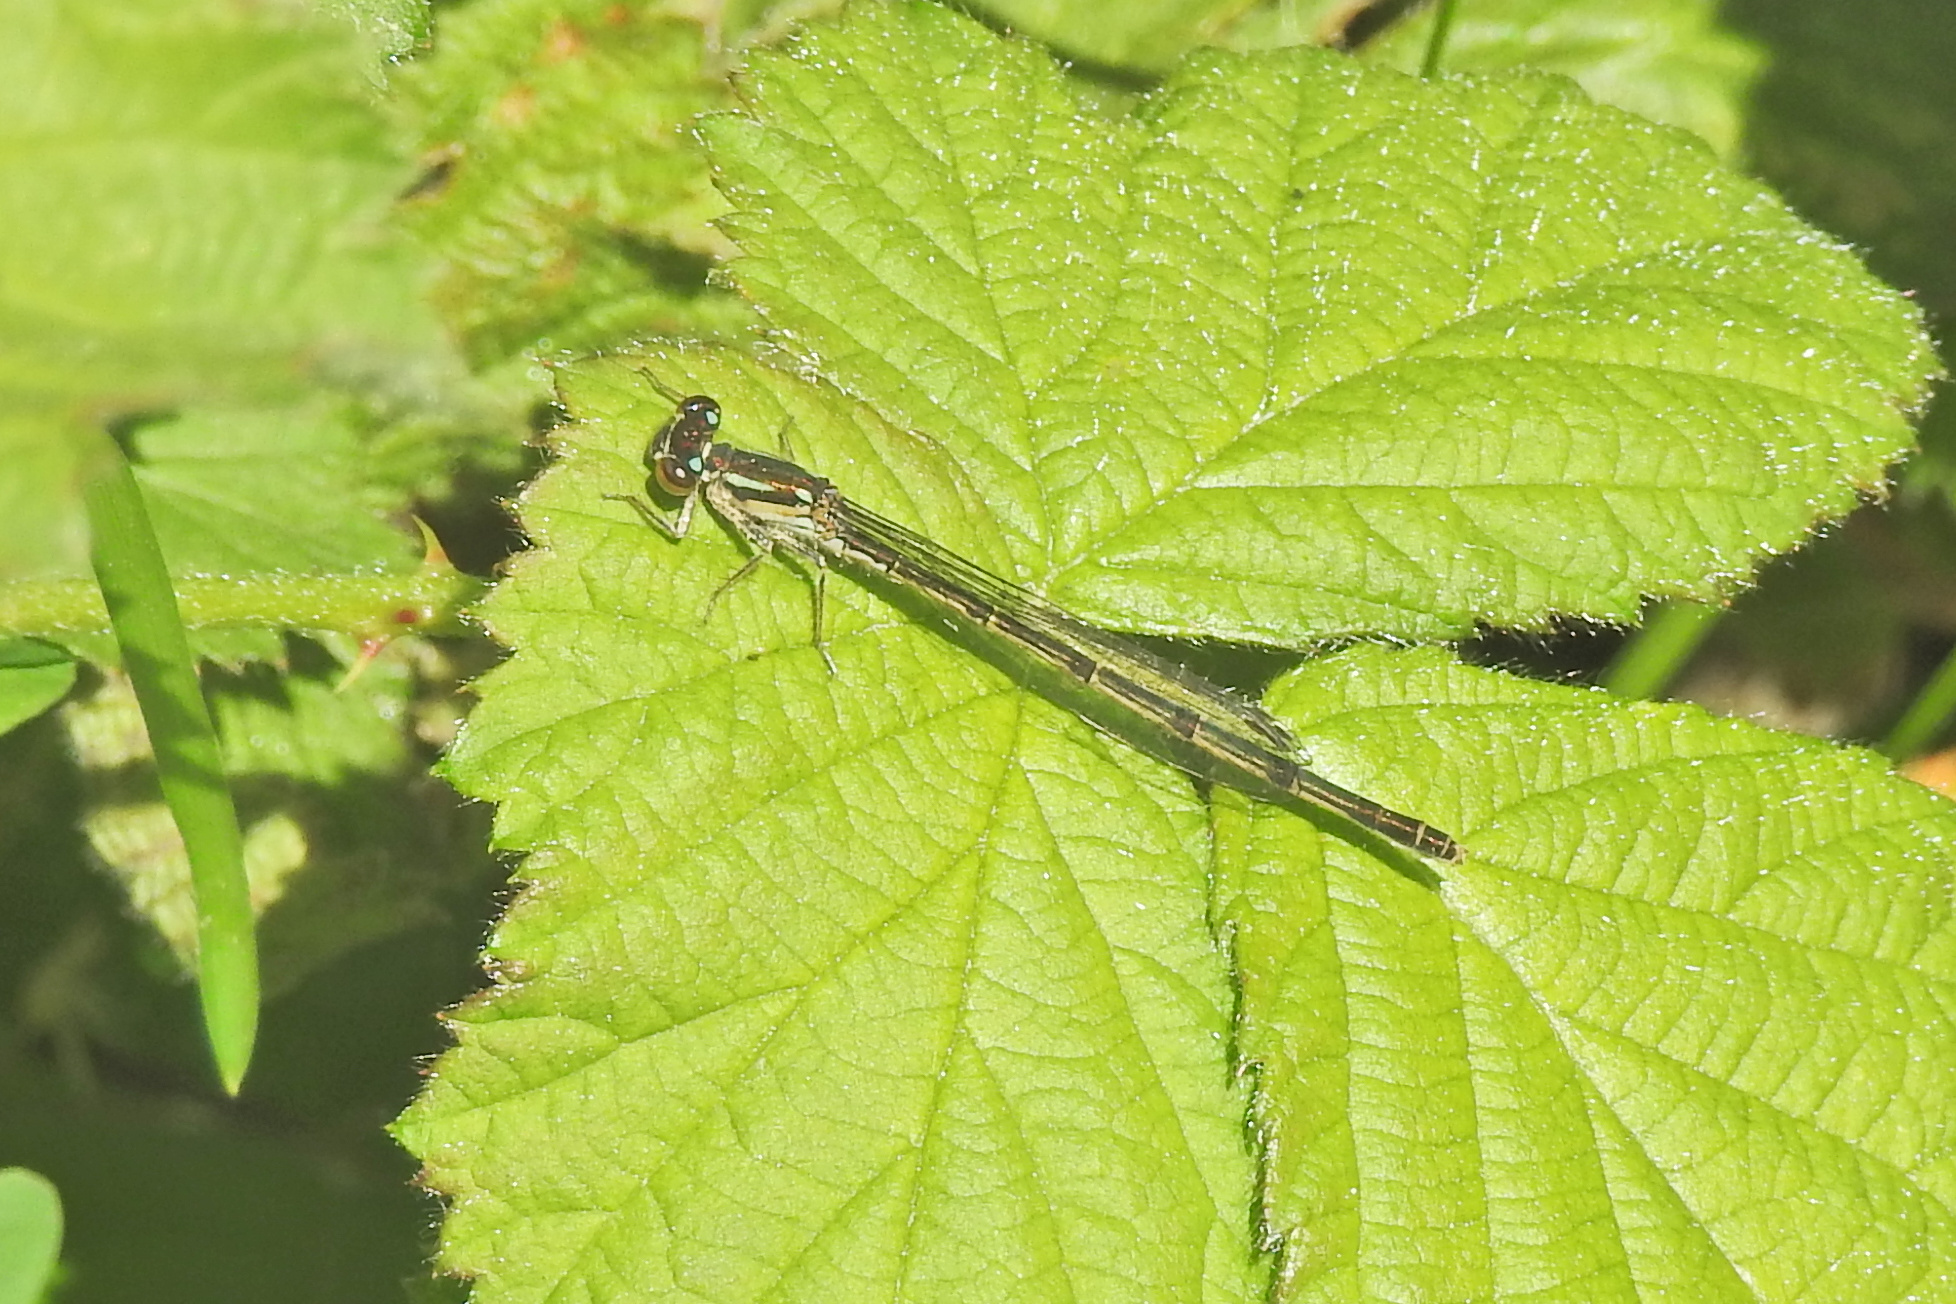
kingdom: Animalia
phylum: Arthropoda
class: Insecta
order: Odonata
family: Coenagrionidae
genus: Ischnura
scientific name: Ischnura posita
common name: Fragile forktail
